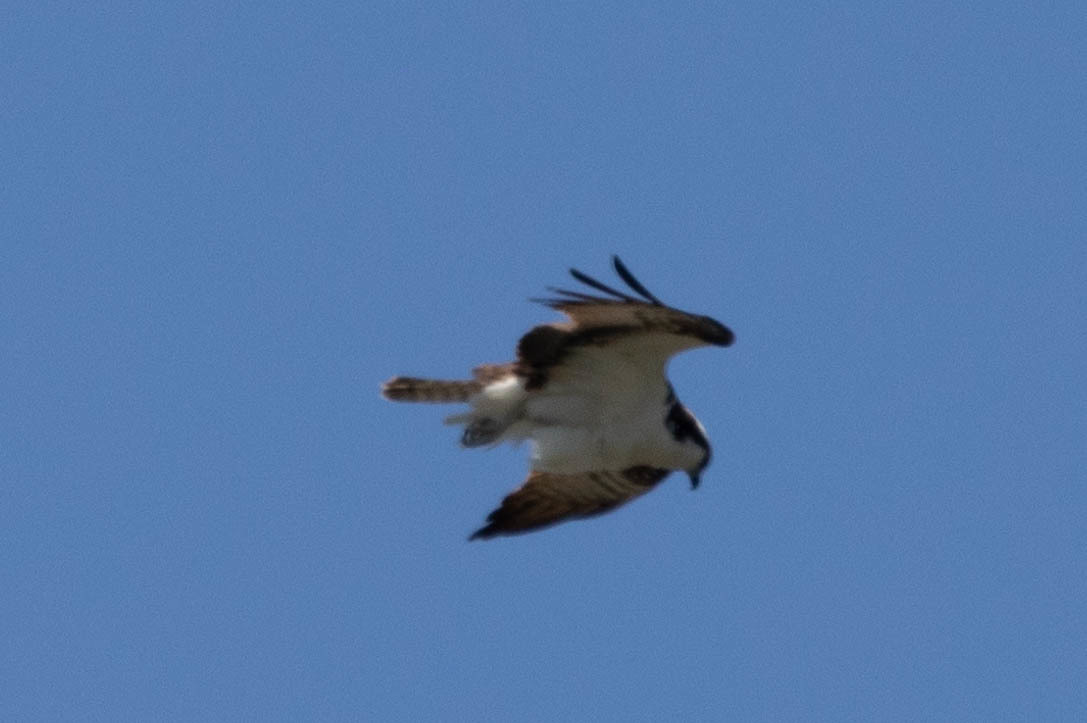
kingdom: Animalia
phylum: Chordata
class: Aves
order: Accipitriformes
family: Pandionidae
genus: Pandion
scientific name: Pandion haliaetus
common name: Osprey
